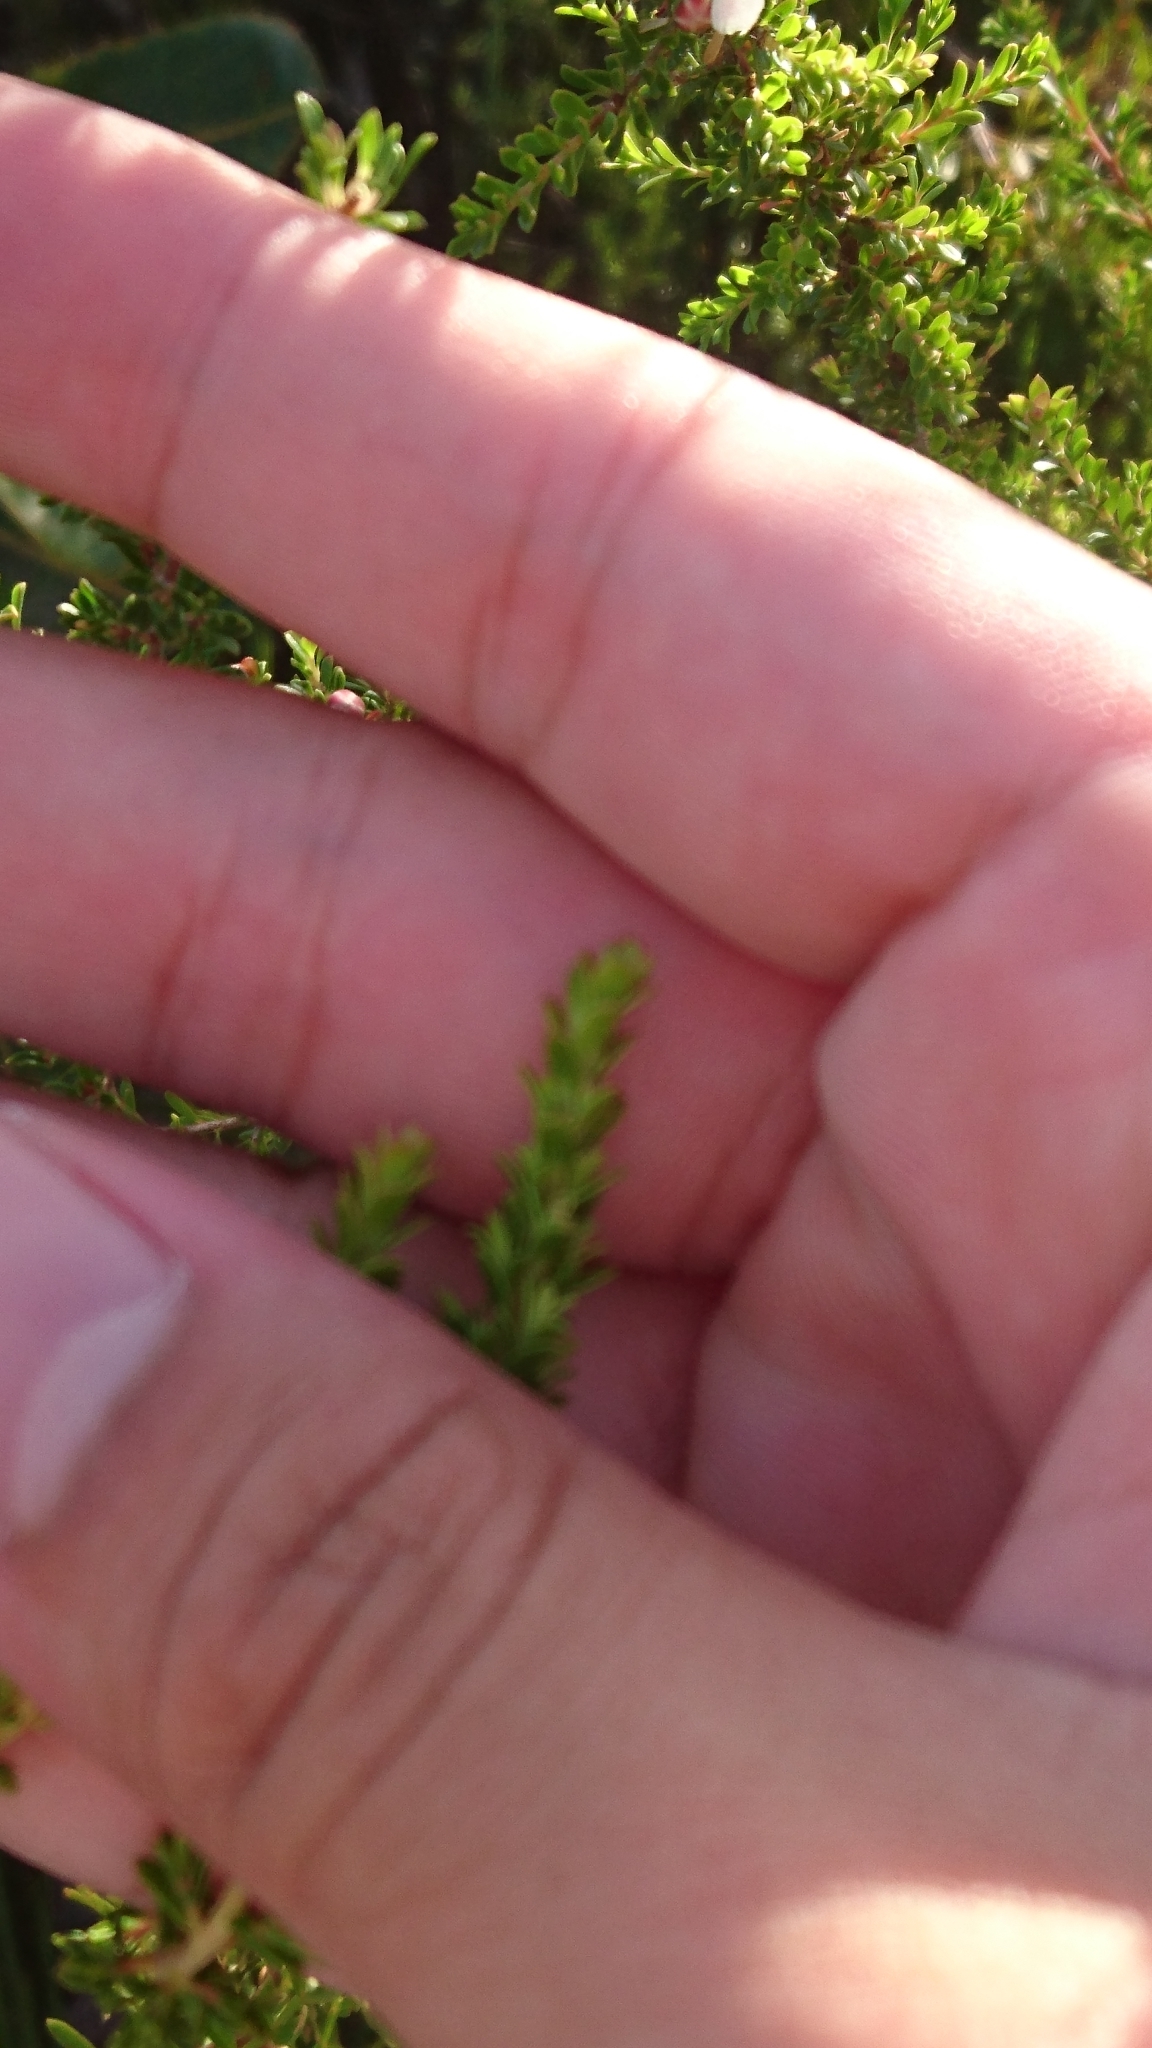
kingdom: Plantae
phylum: Tracheophyta
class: Magnoliopsida
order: Myrtales
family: Myrtaceae
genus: Leptospermum
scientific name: Leptospermum liversidgei
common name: Citron-scent teatree
